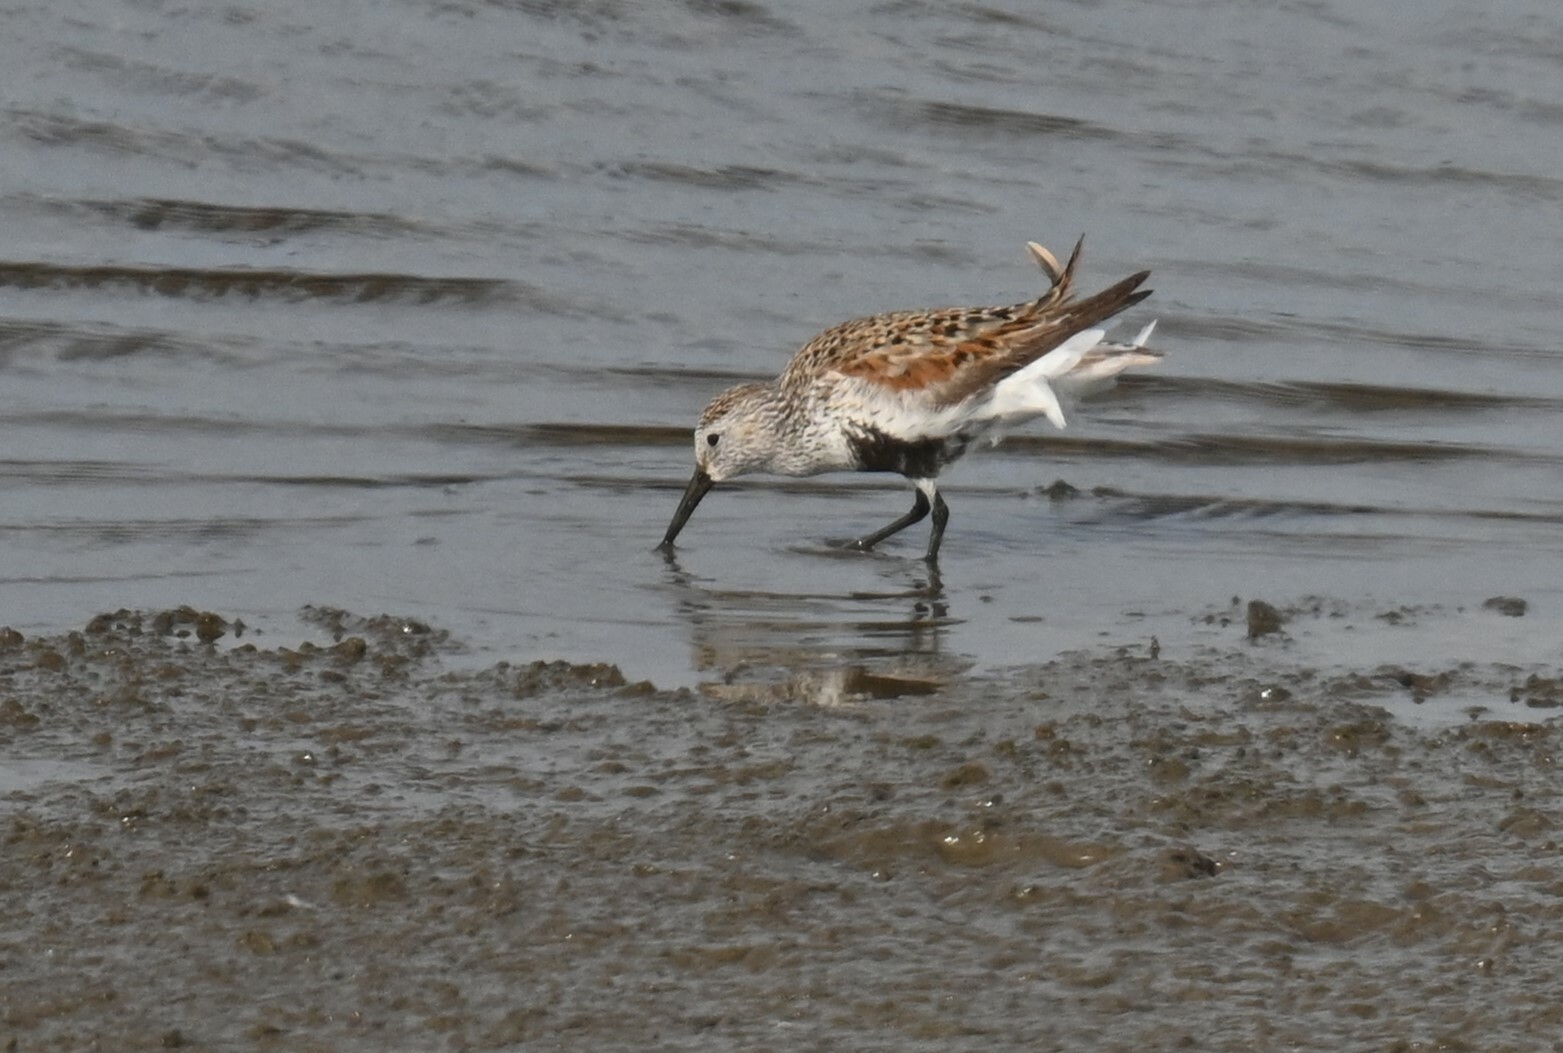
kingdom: Animalia
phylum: Chordata
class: Aves
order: Charadriiformes
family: Scolopacidae
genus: Calidris
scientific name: Calidris alpina
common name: Dunlin
